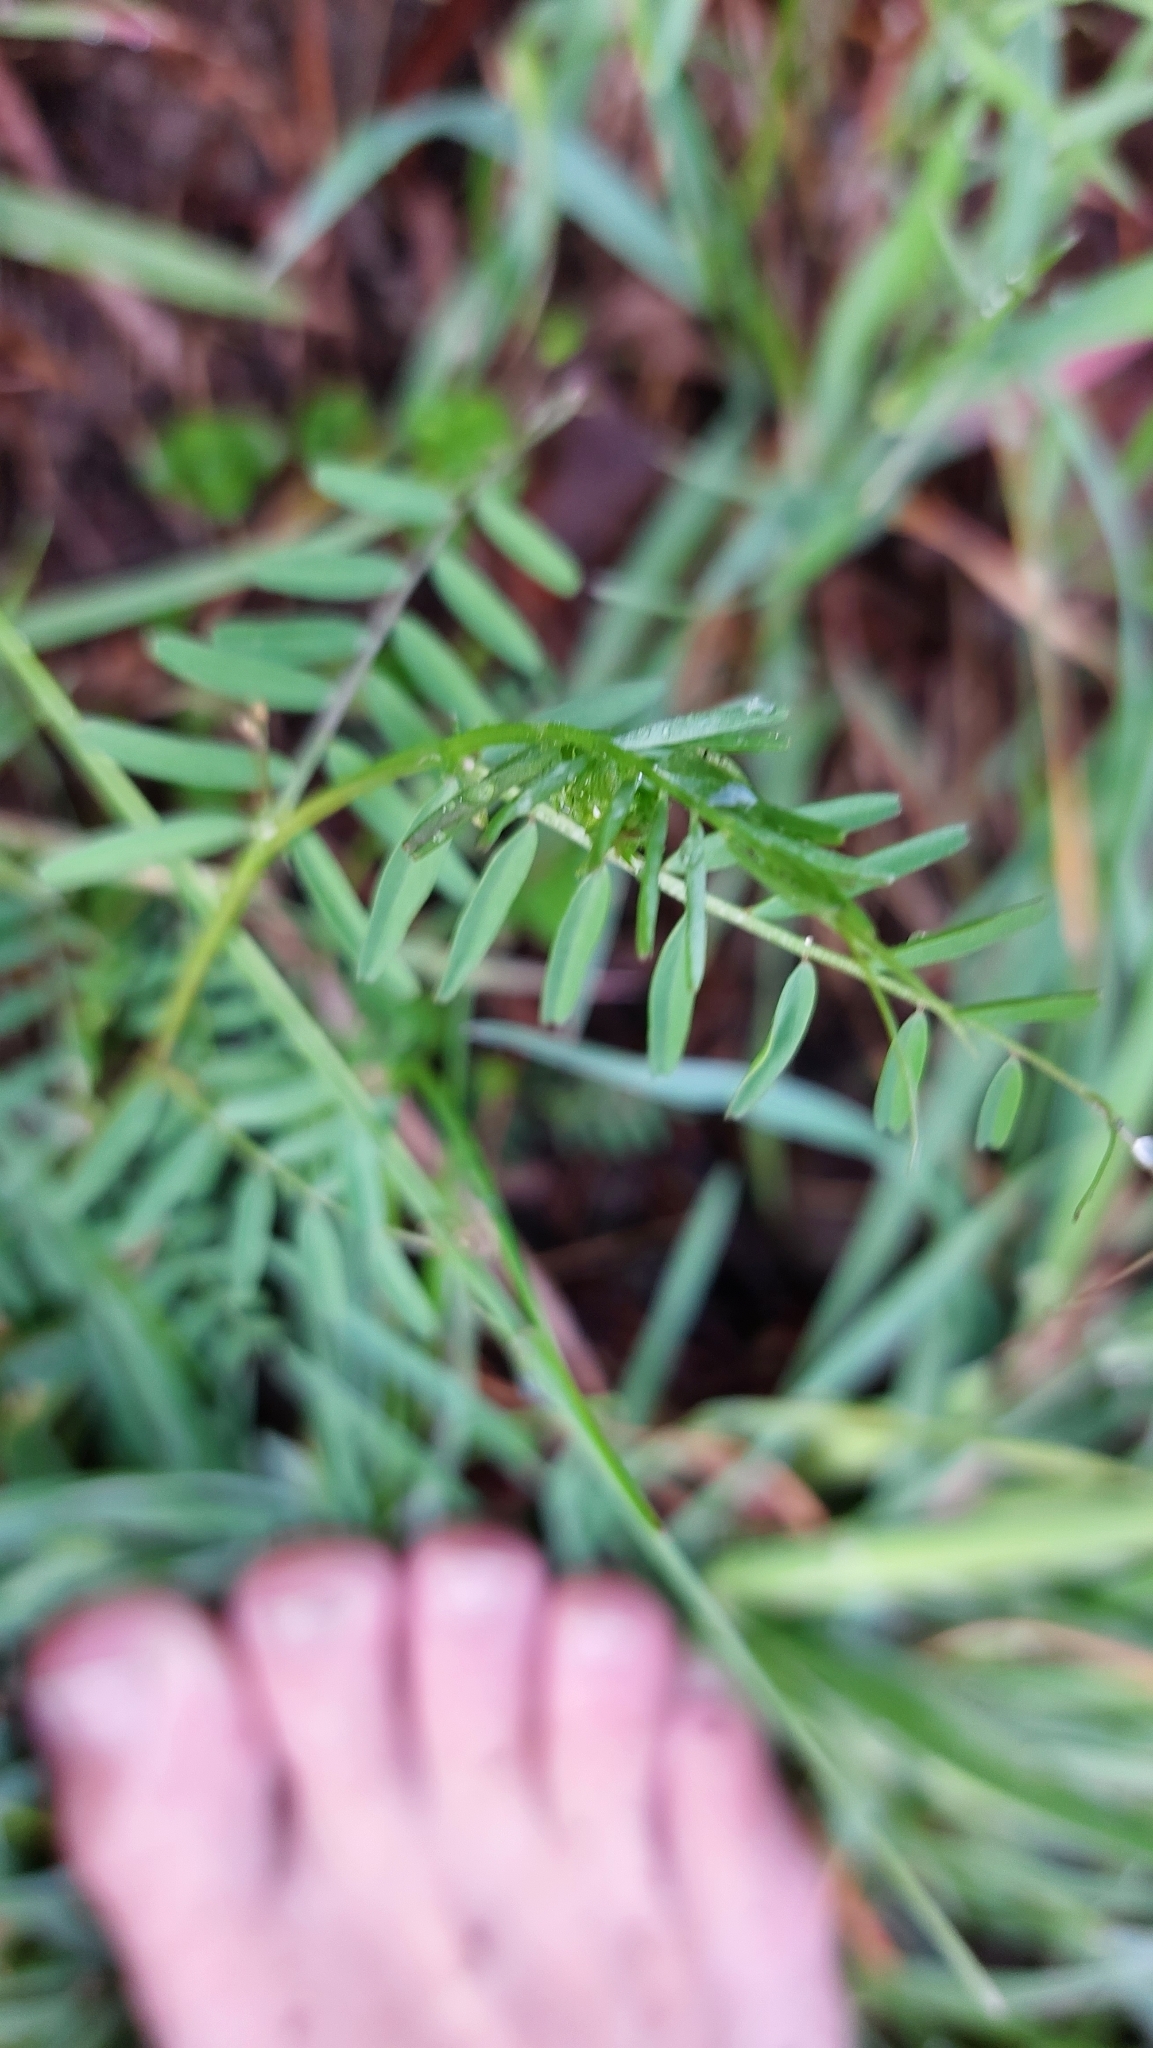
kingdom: Plantae
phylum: Tracheophyta
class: Magnoliopsida
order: Fabales
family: Fabaceae
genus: Vicia
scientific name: Vicia hirsuta
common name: Tiny vetch
